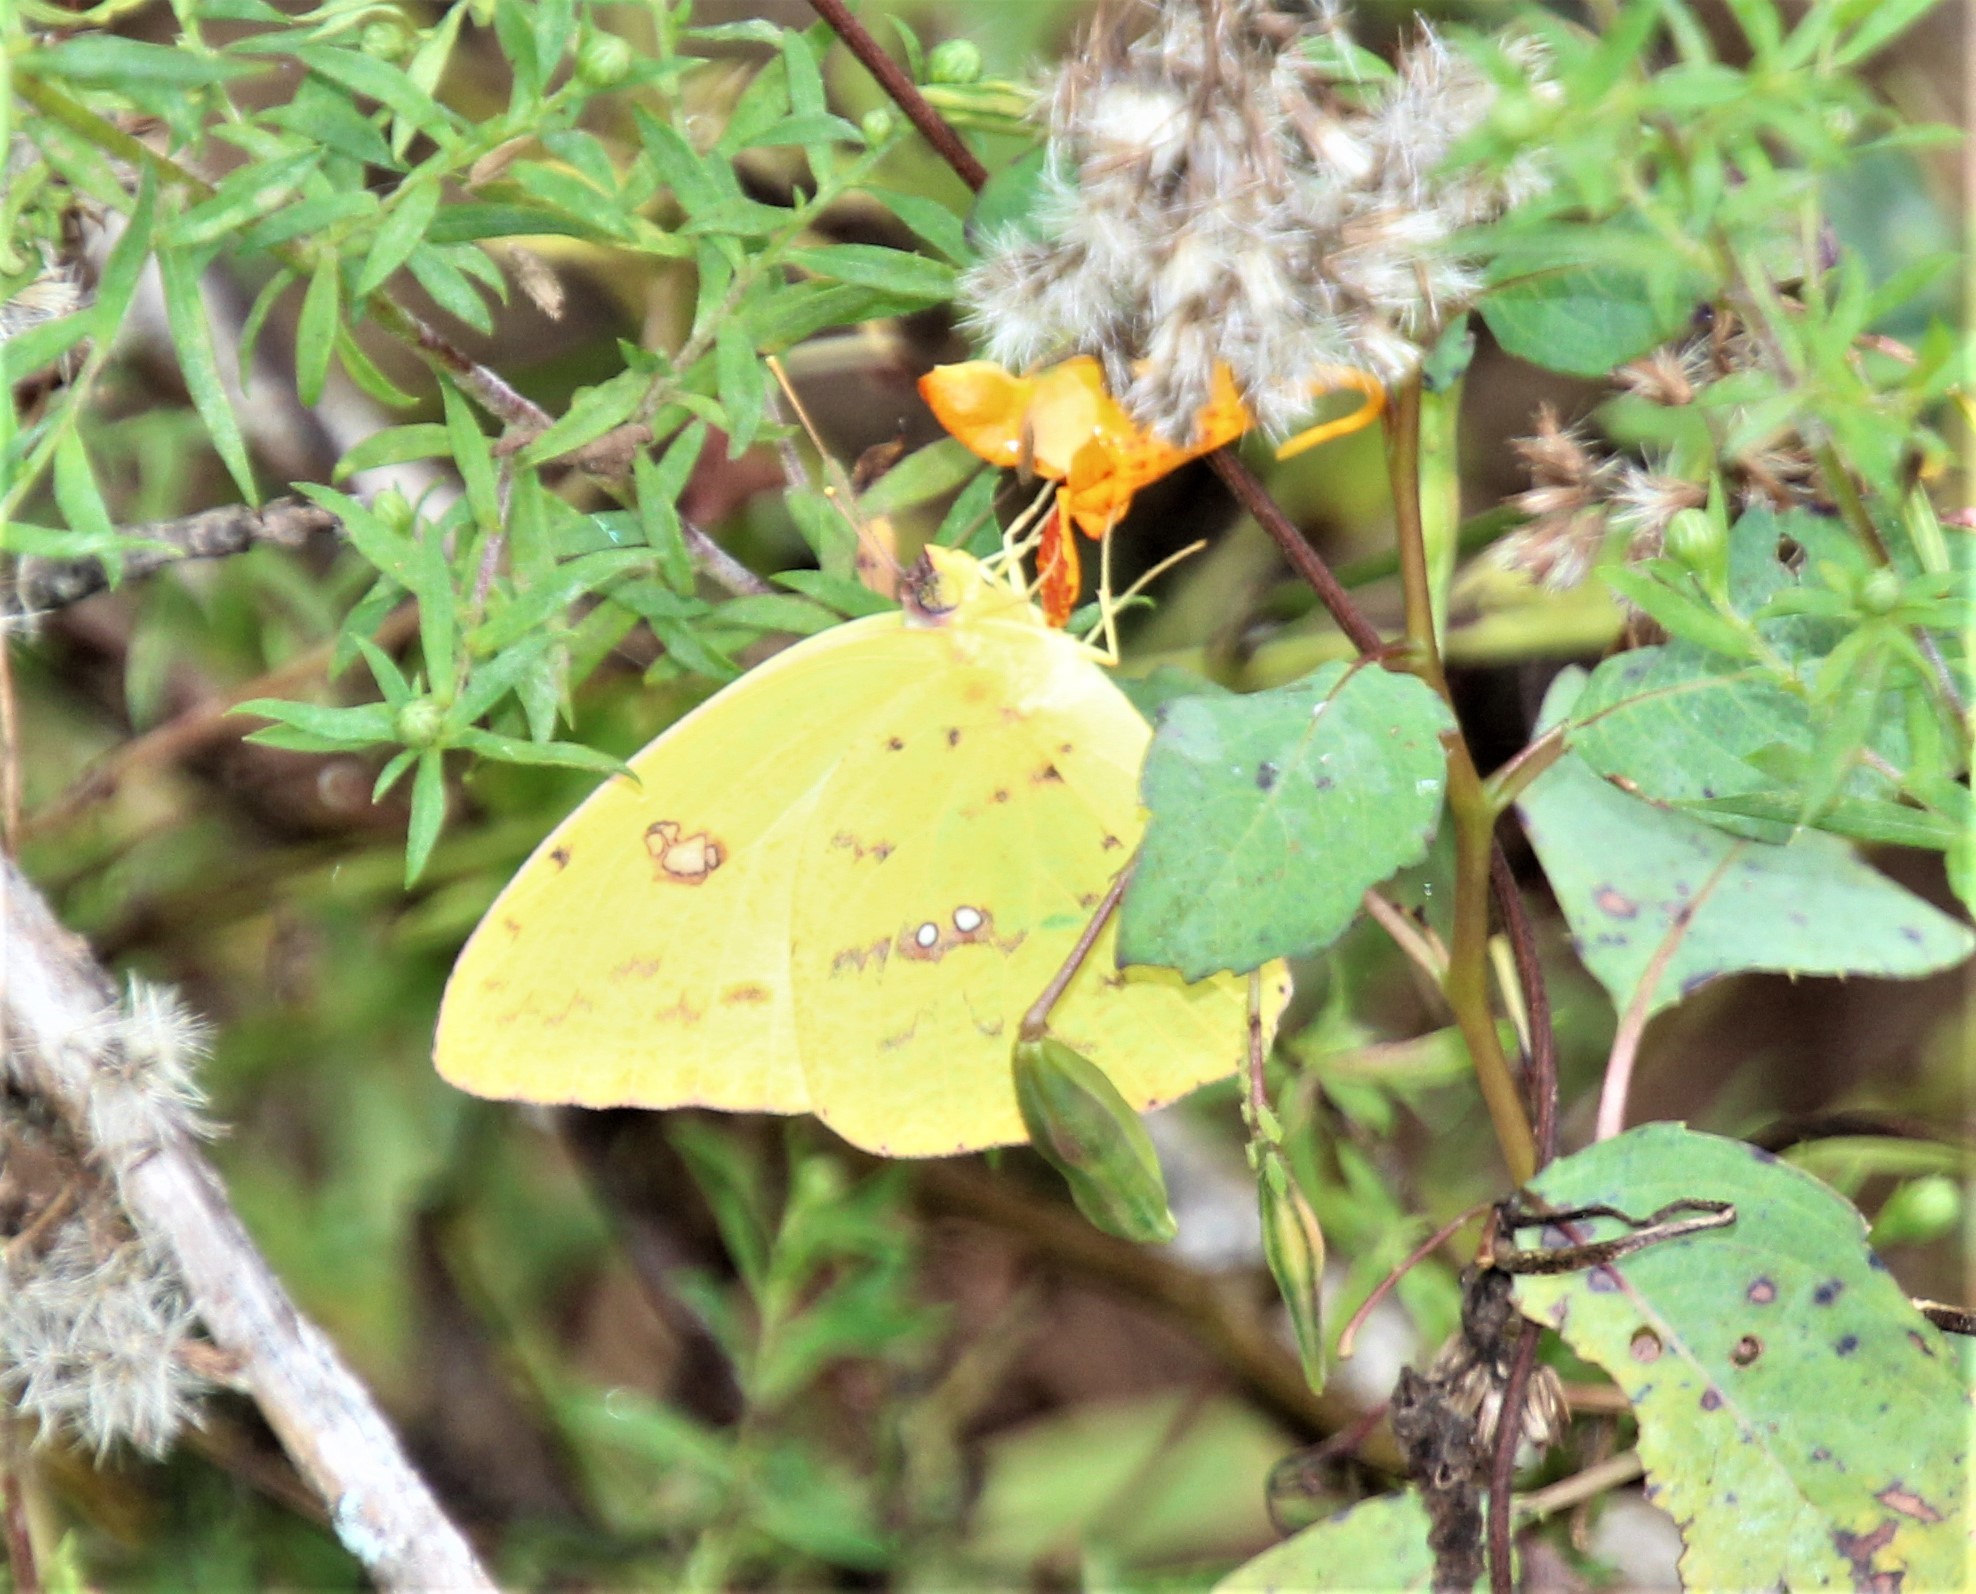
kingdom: Animalia
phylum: Arthropoda
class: Insecta
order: Lepidoptera
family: Pieridae
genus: Phoebis
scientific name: Phoebis sennae
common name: Cloudless sulphur
